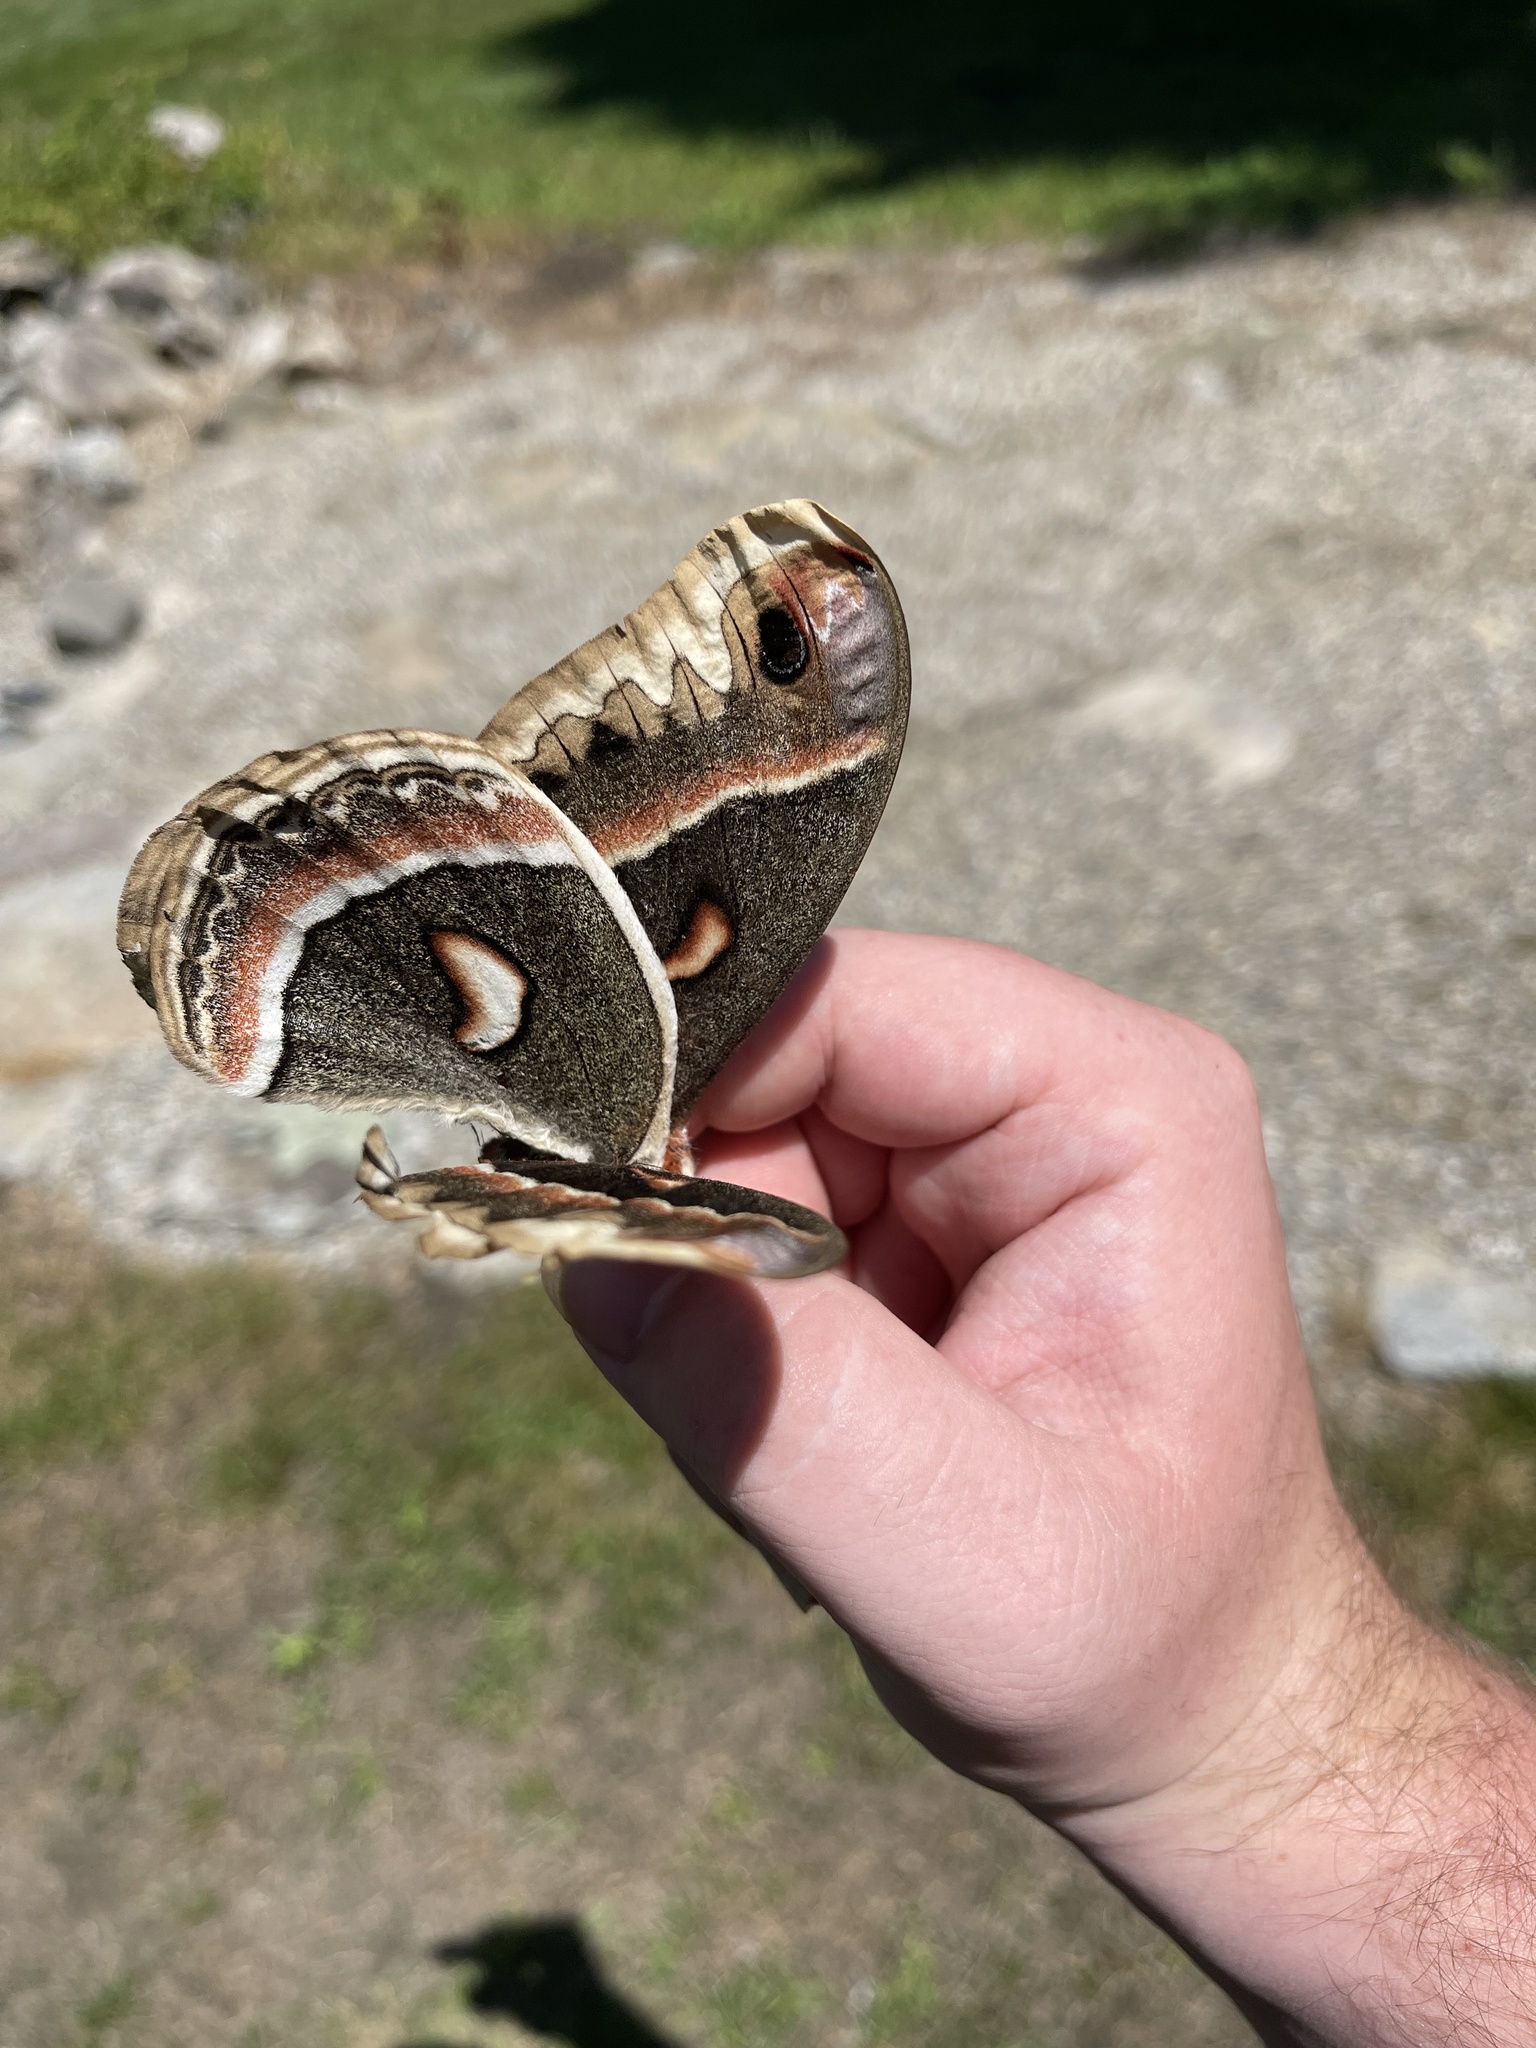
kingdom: Animalia
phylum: Arthropoda
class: Insecta
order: Lepidoptera
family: Saturniidae
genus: Hyalophora
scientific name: Hyalophora cecropia
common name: Cecropia silkmoth
